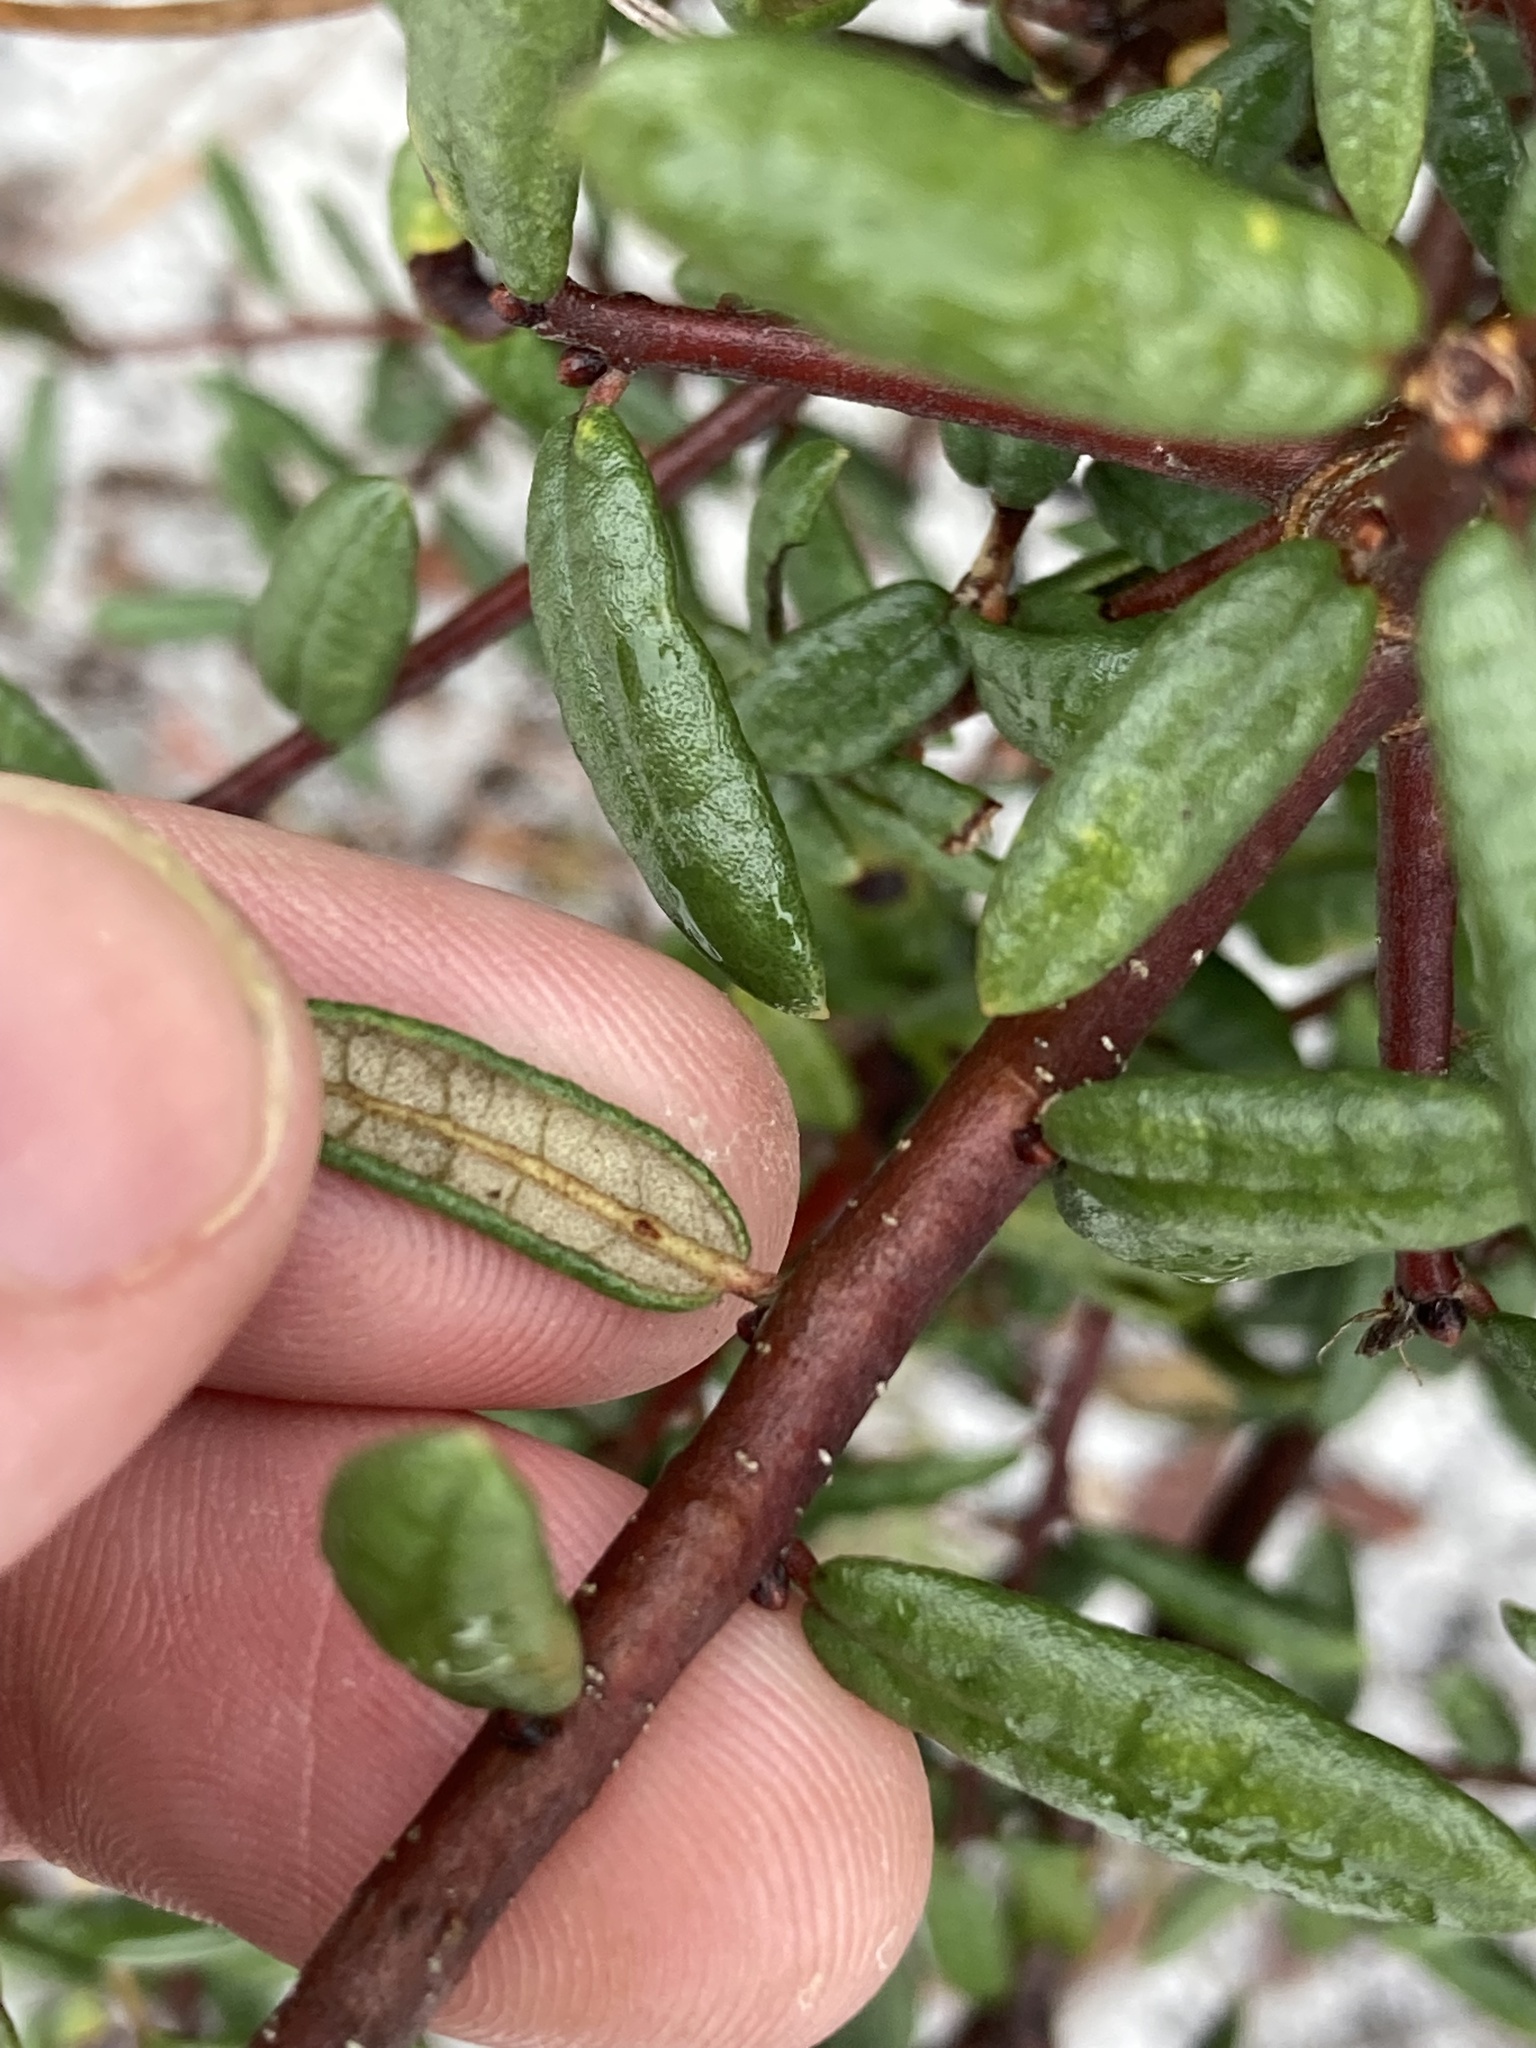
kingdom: Plantae
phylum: Tracheophyta
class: Magnoliopsida
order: Fagales
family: Fagaceae
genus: Quercus
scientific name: Quercus geminata
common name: Sand live oak
